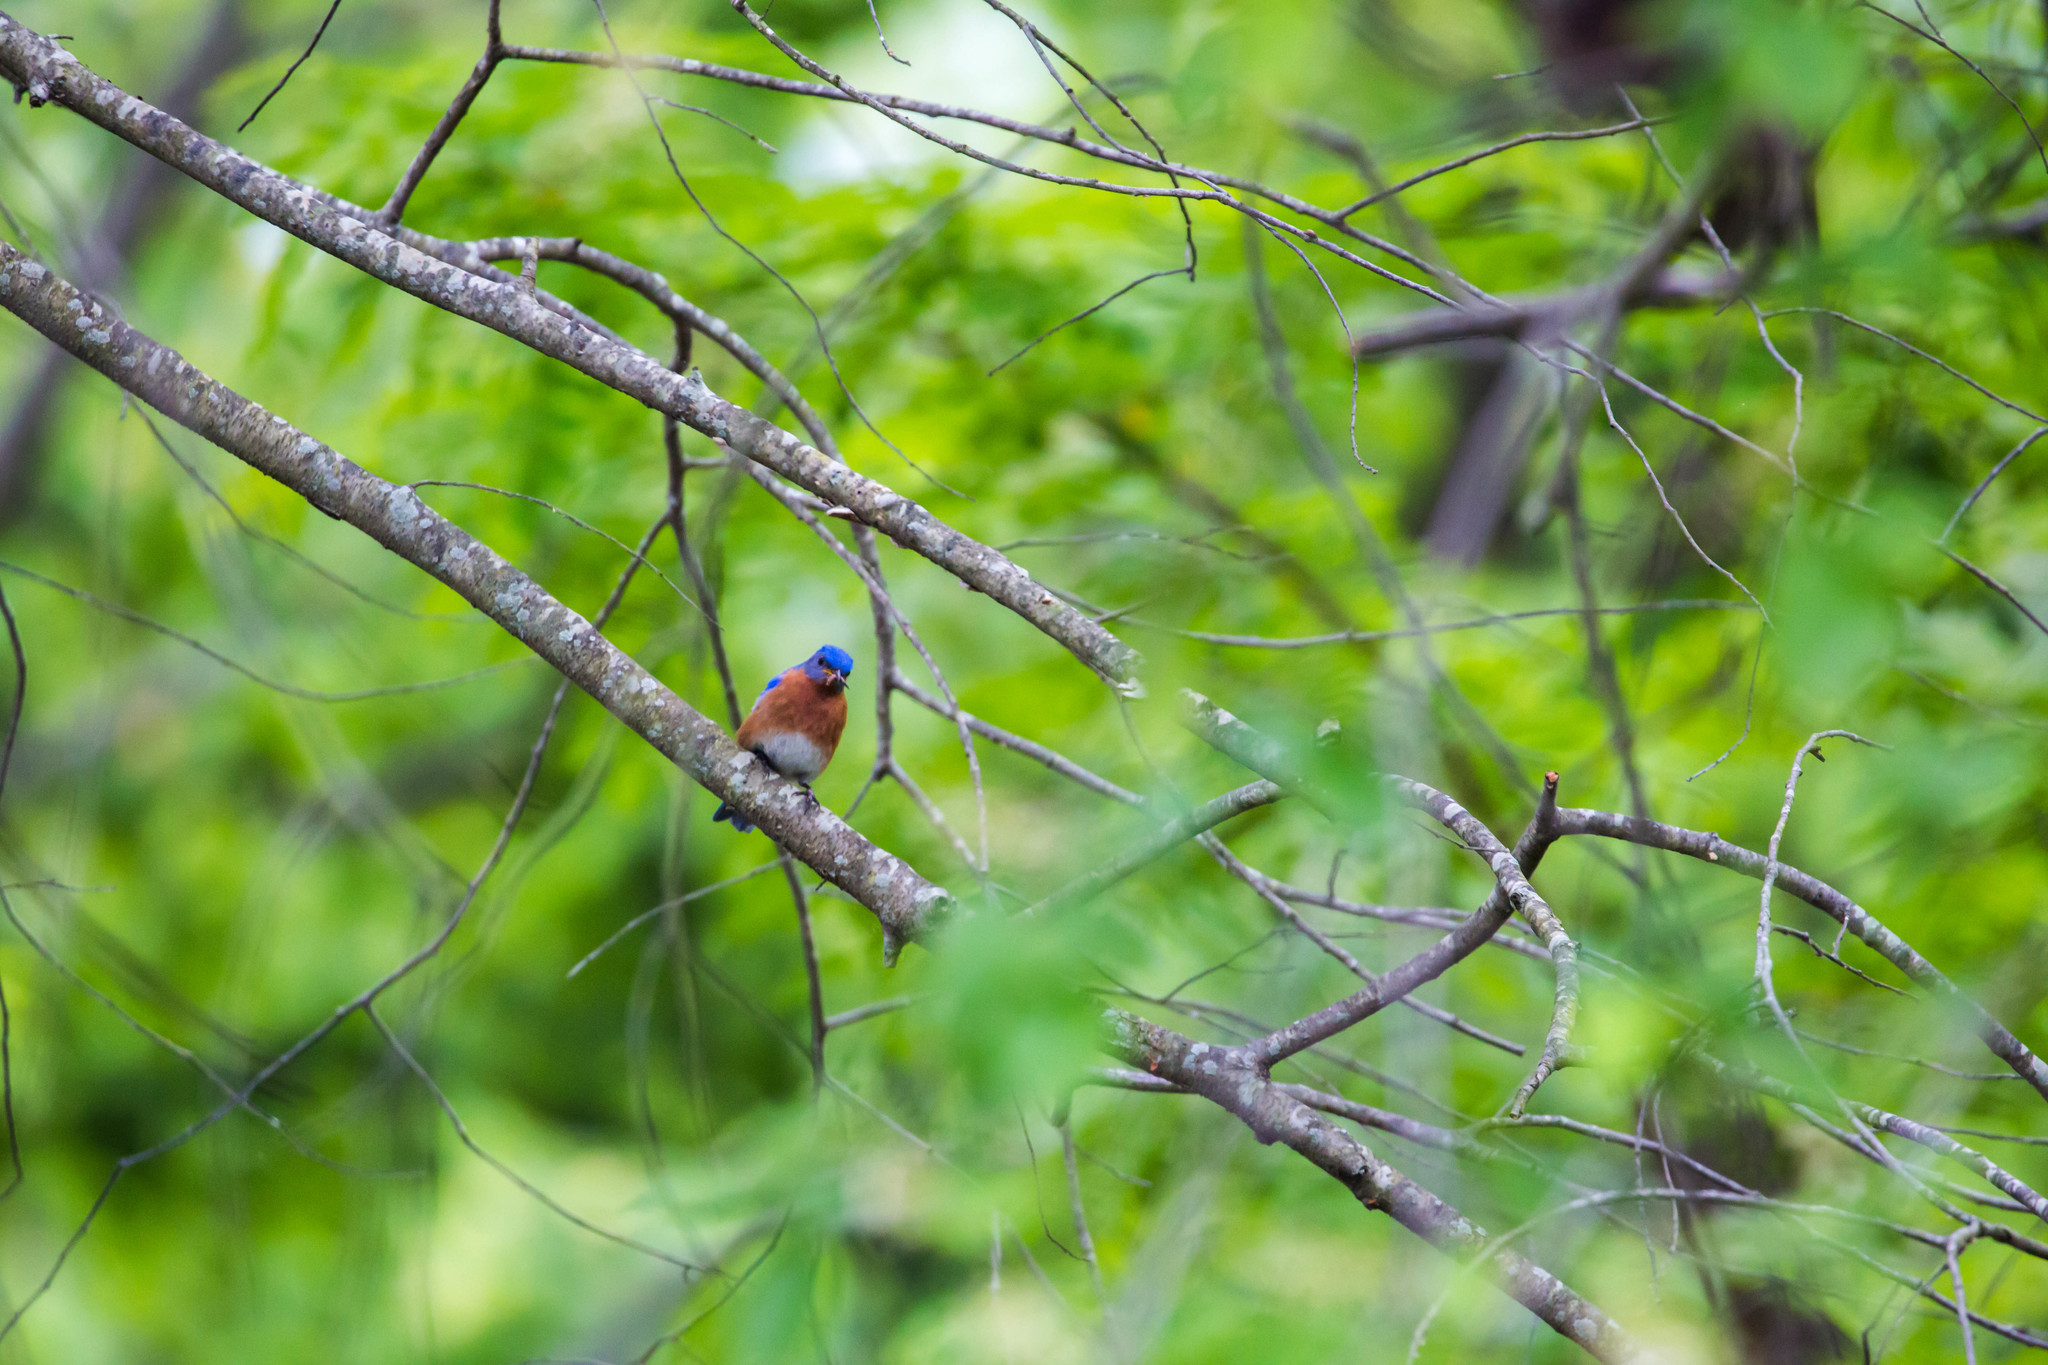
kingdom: Animalia
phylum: Chordata
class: Aves
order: Passeriformes
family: Turdidae
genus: Sialia
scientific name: Sialia sialis
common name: Eastern bluebird
